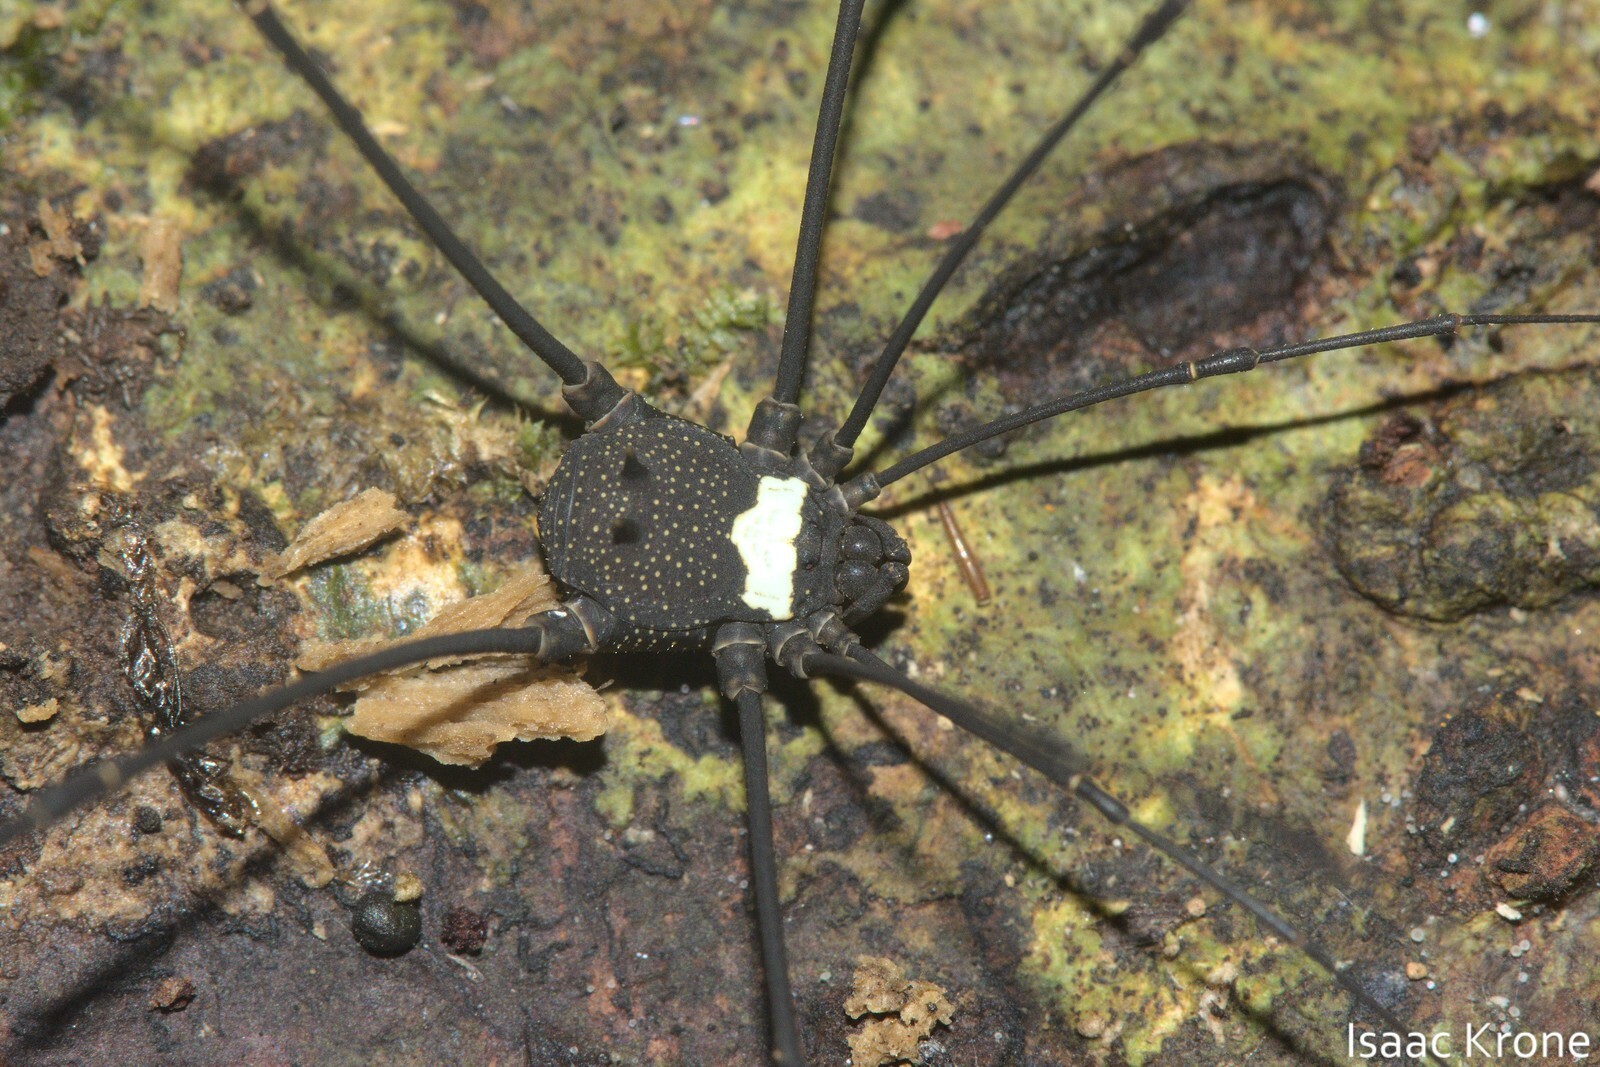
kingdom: Animalia
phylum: Arthropoda
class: Arachnida
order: Opiliones
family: Cosmetidae
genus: Paecilaemella
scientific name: Paecilaemella multimaculata
